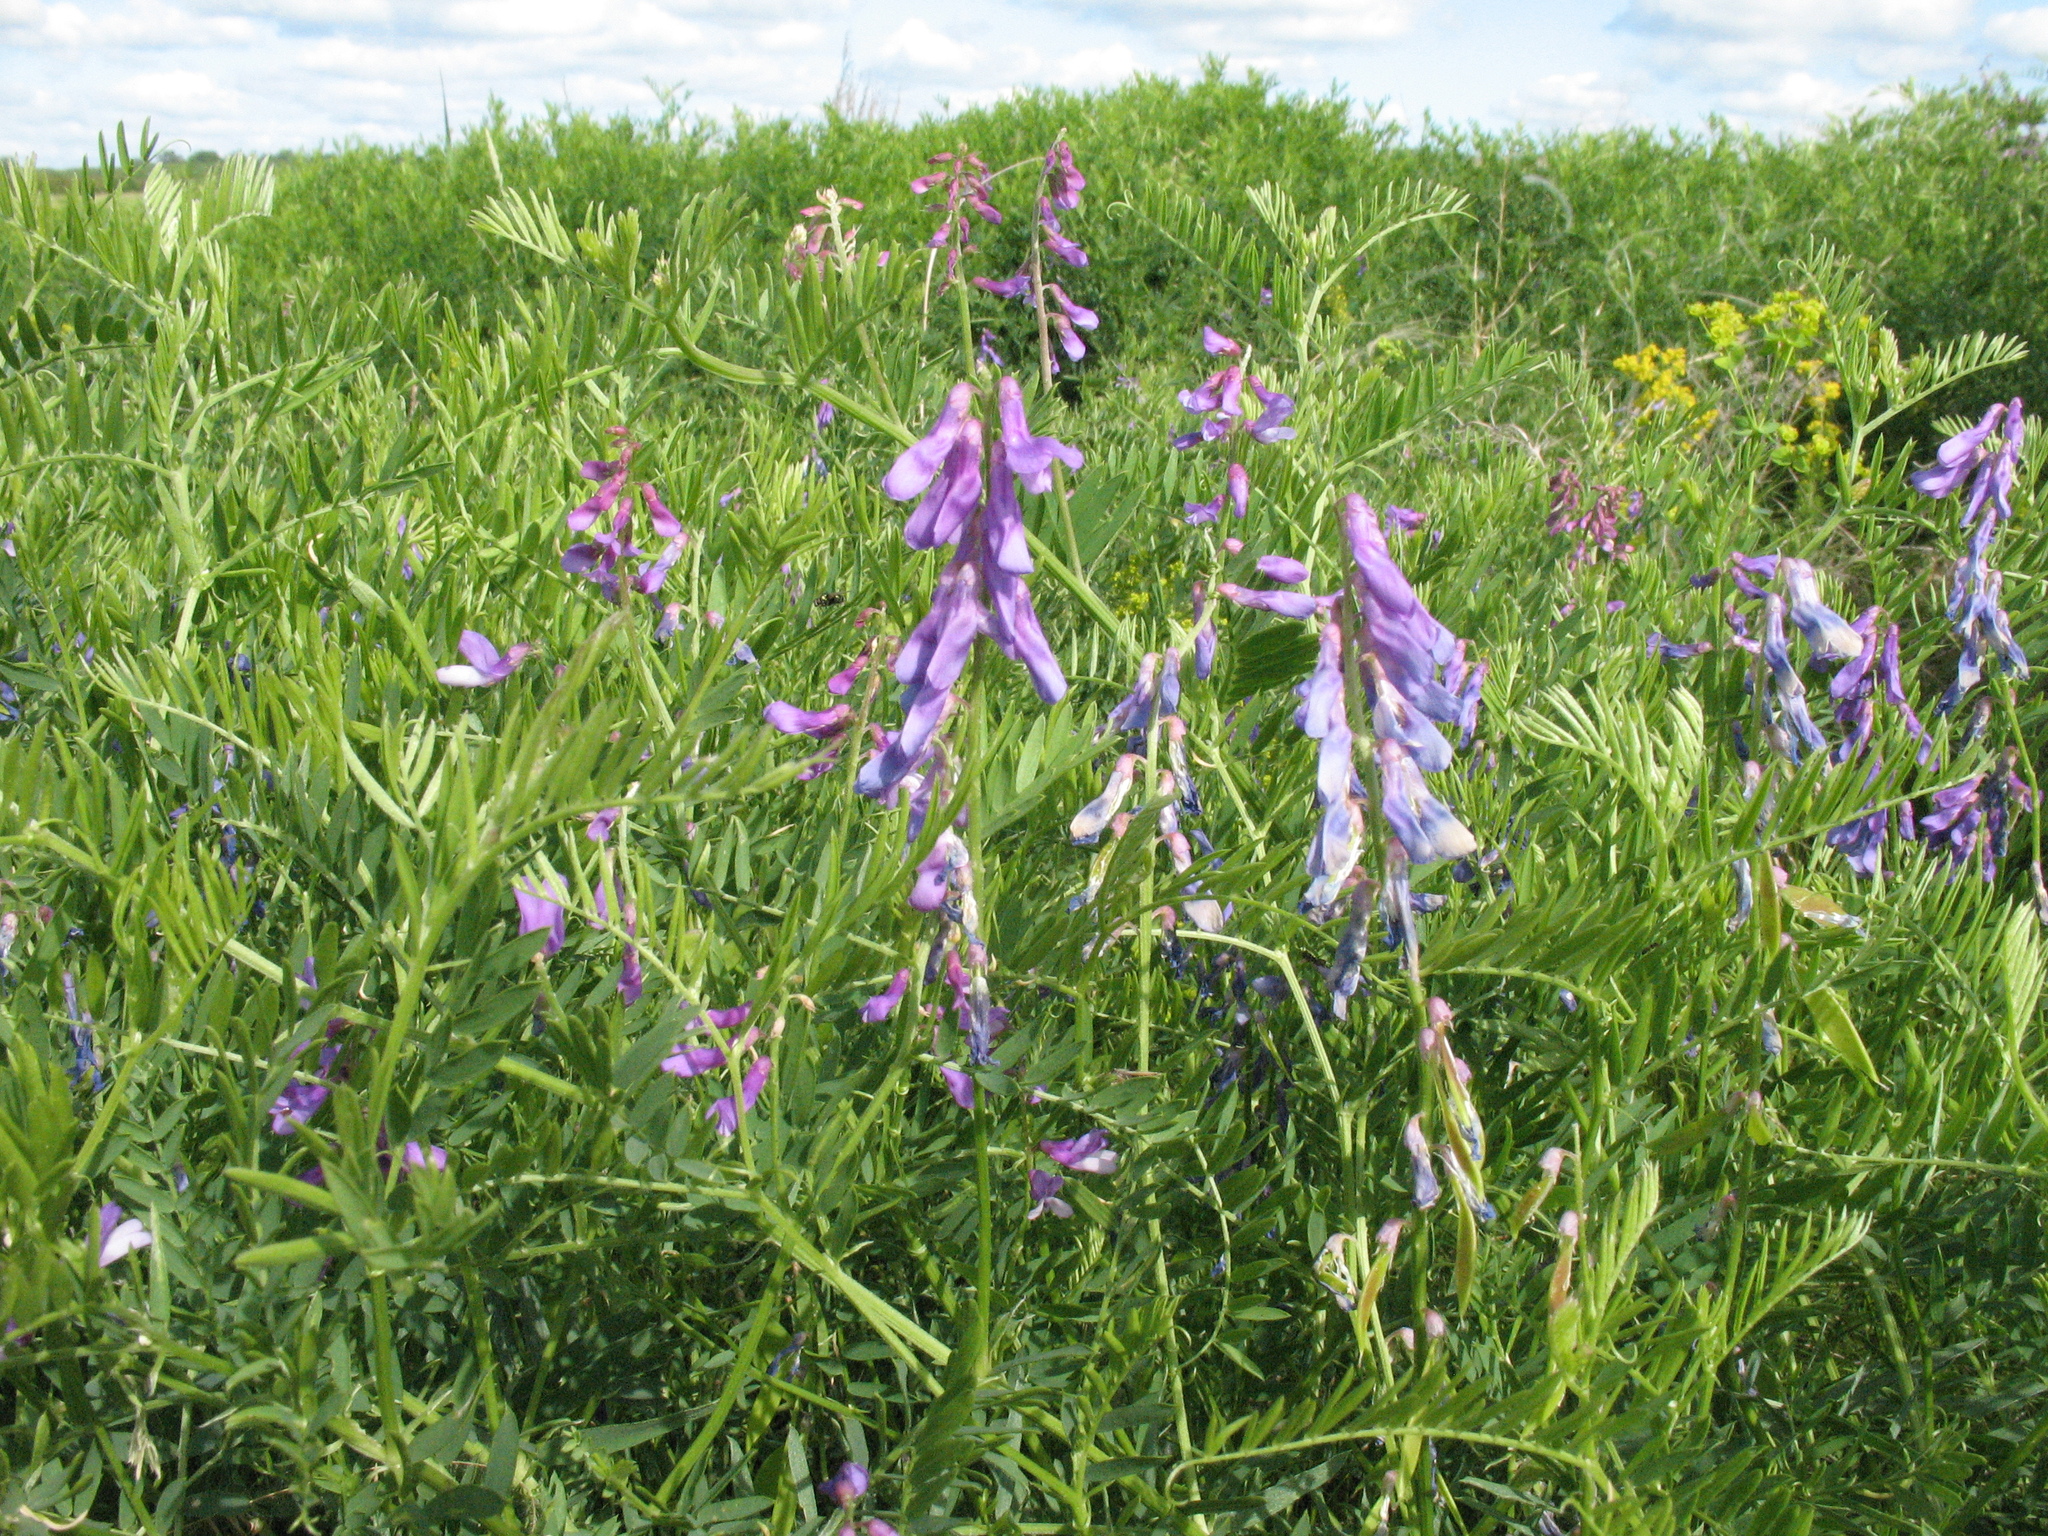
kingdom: Plantae
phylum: Tracheophyta
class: Magnoliopsida
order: Fabales
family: Fabaceae
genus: Vicia
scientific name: Vicia tenuifolia
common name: Fine-leaved vetch
